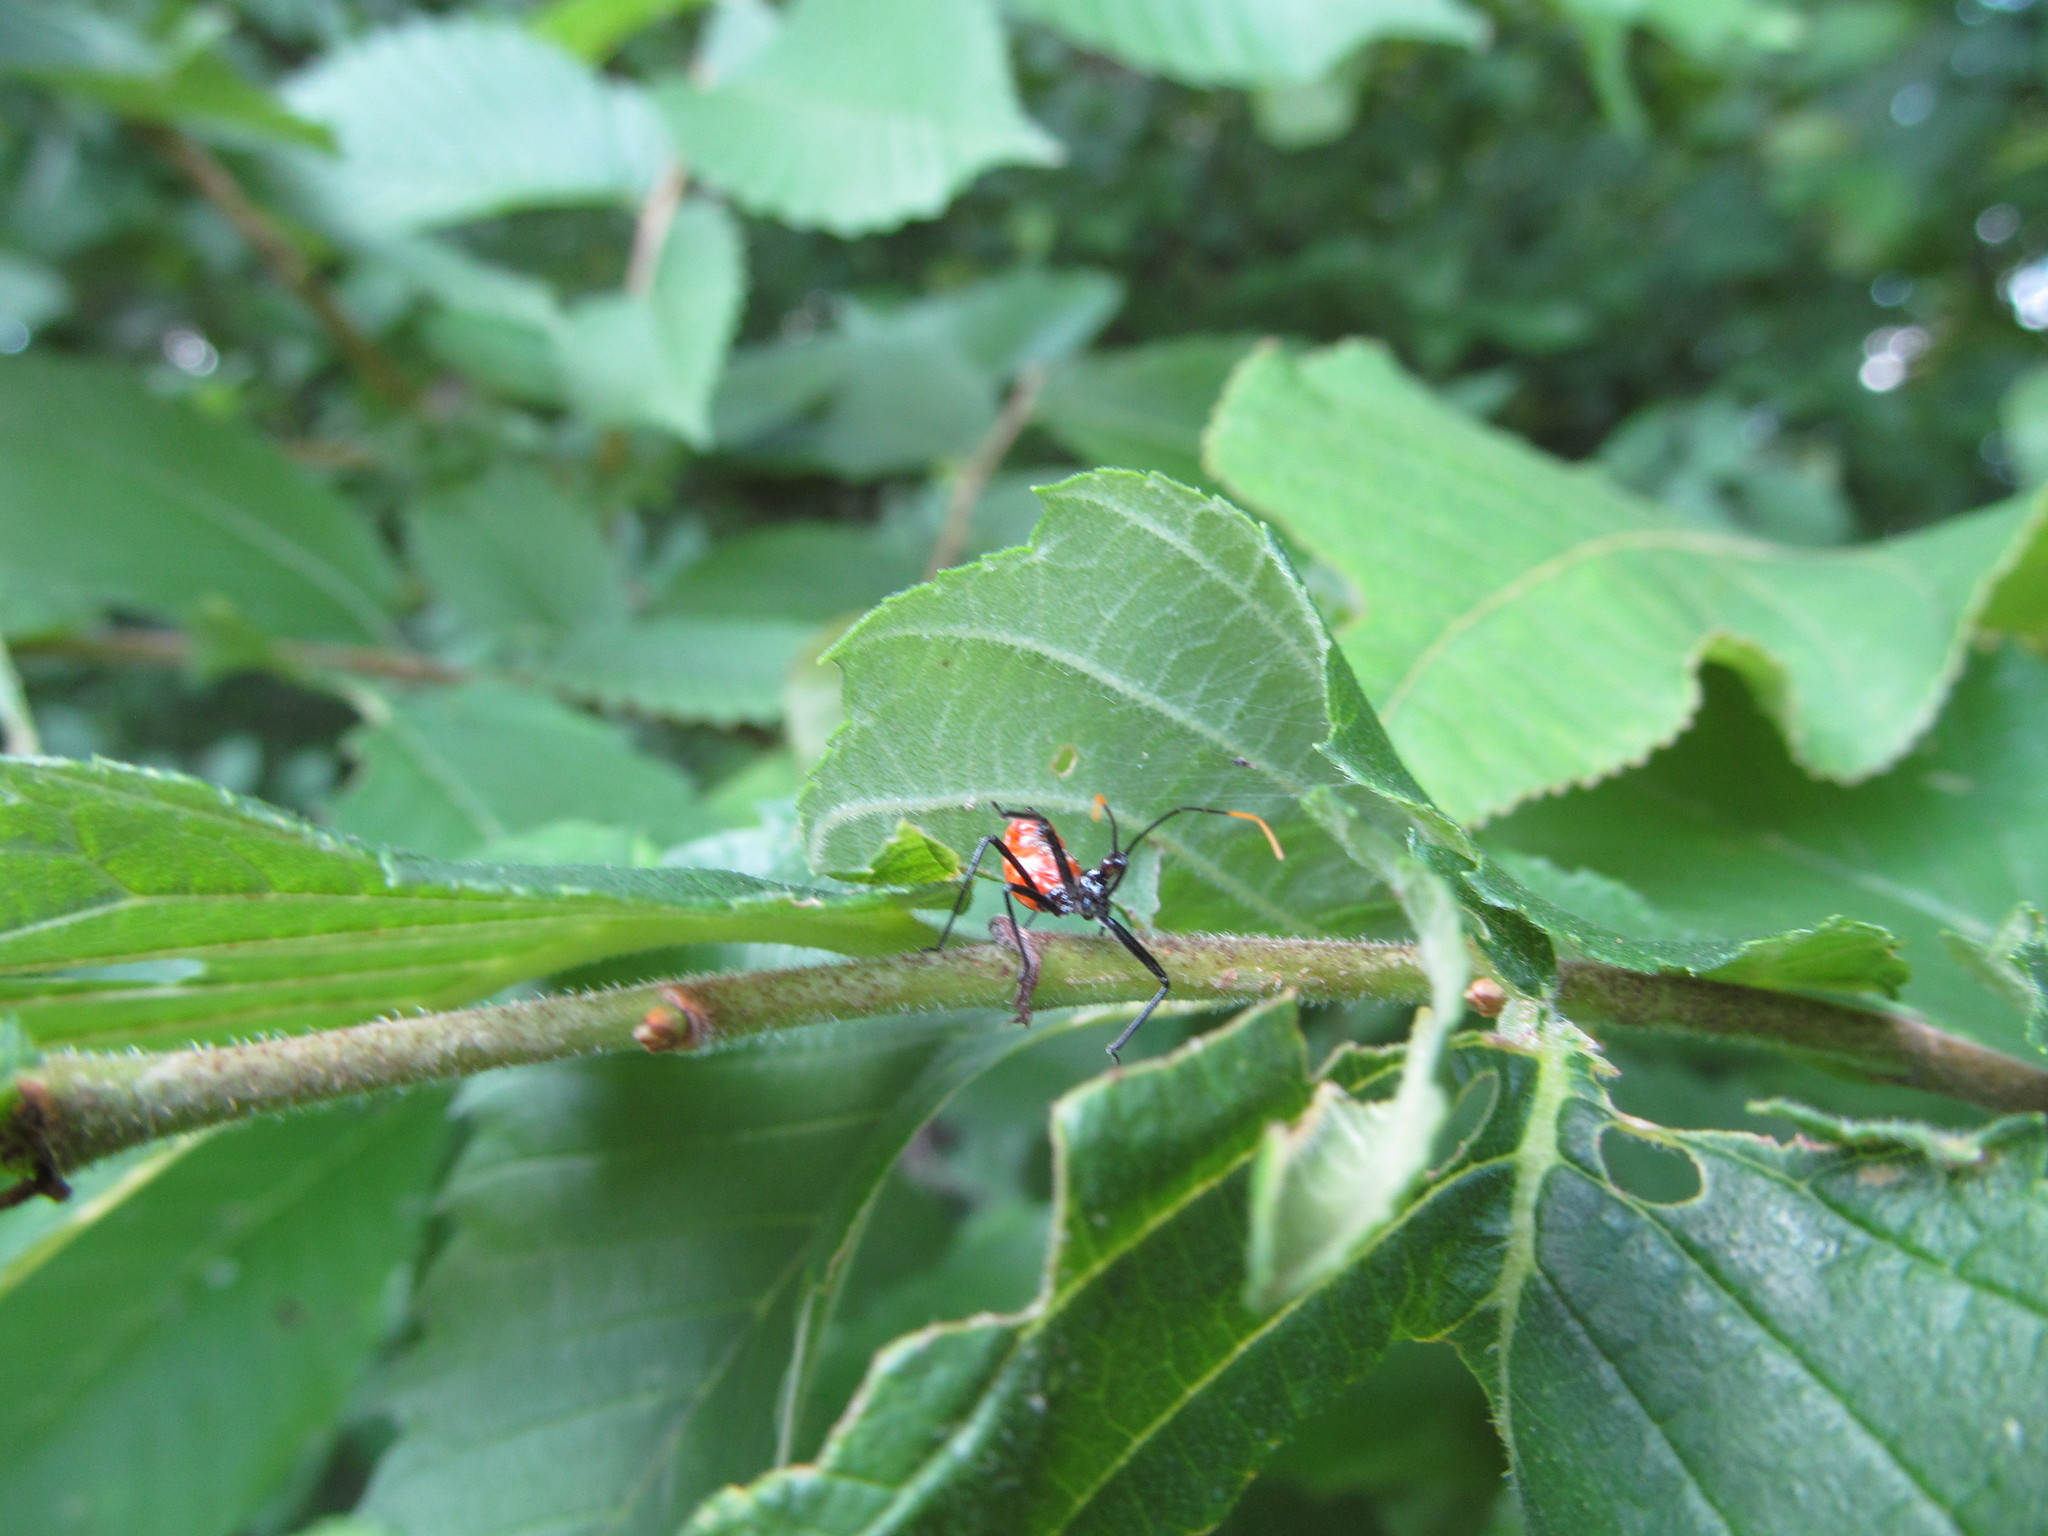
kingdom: Animalia
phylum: Arthropoda
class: Insecta
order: Hemiptera
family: Reduviidae
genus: Arilus
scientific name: Arilus cristatus
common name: North american wheel bug
